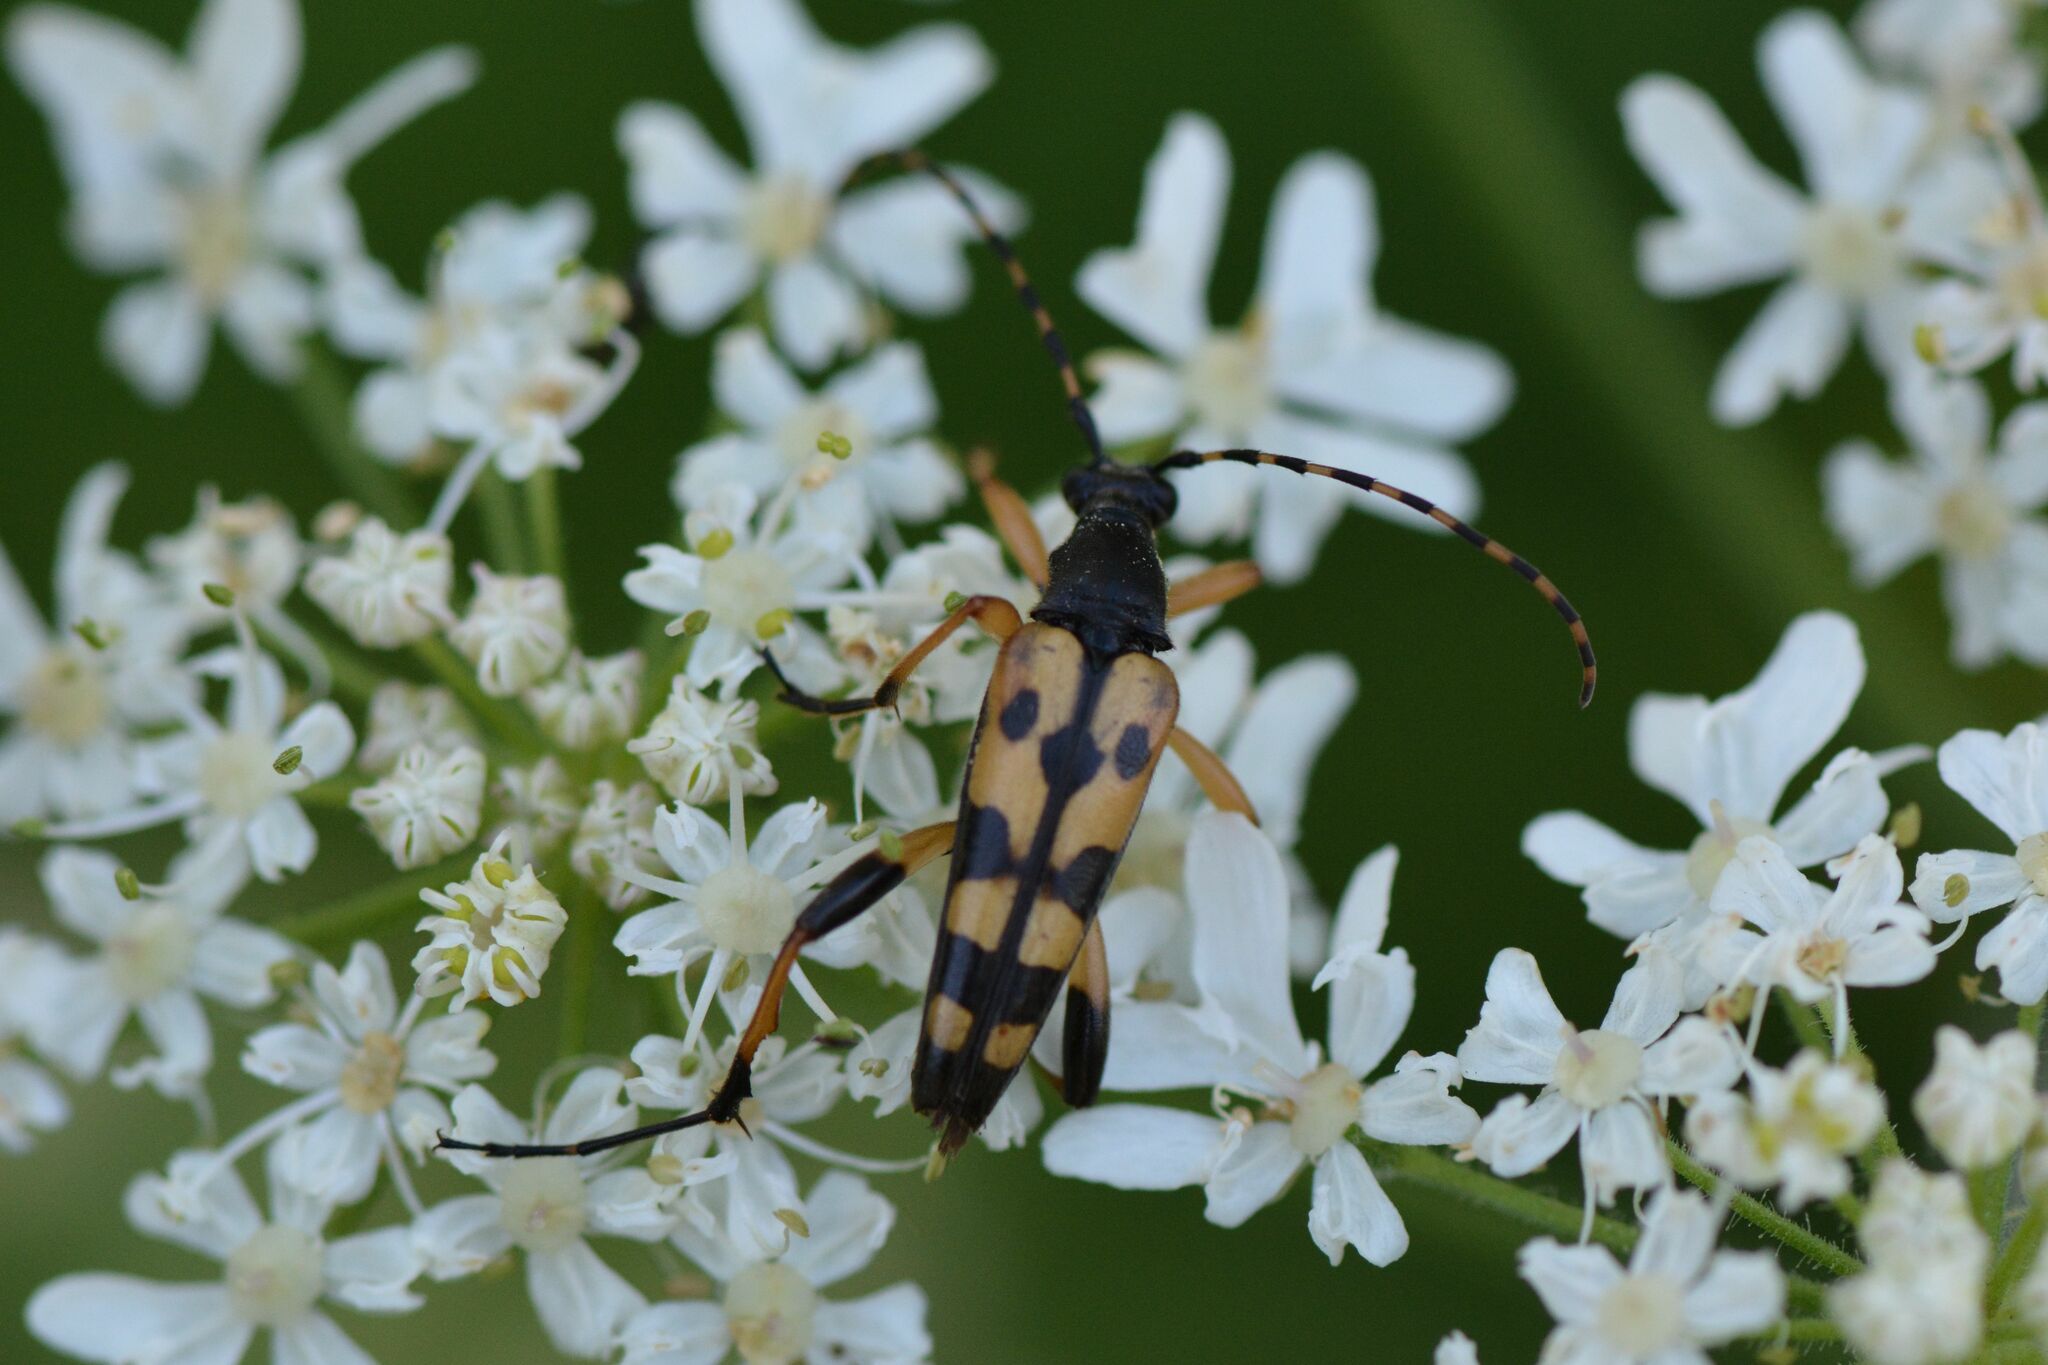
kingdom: Animalia
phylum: Arthropoda
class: Insecta
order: Coleoptera
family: Cerambycidae
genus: Rutpela
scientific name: Rutpela maculata
